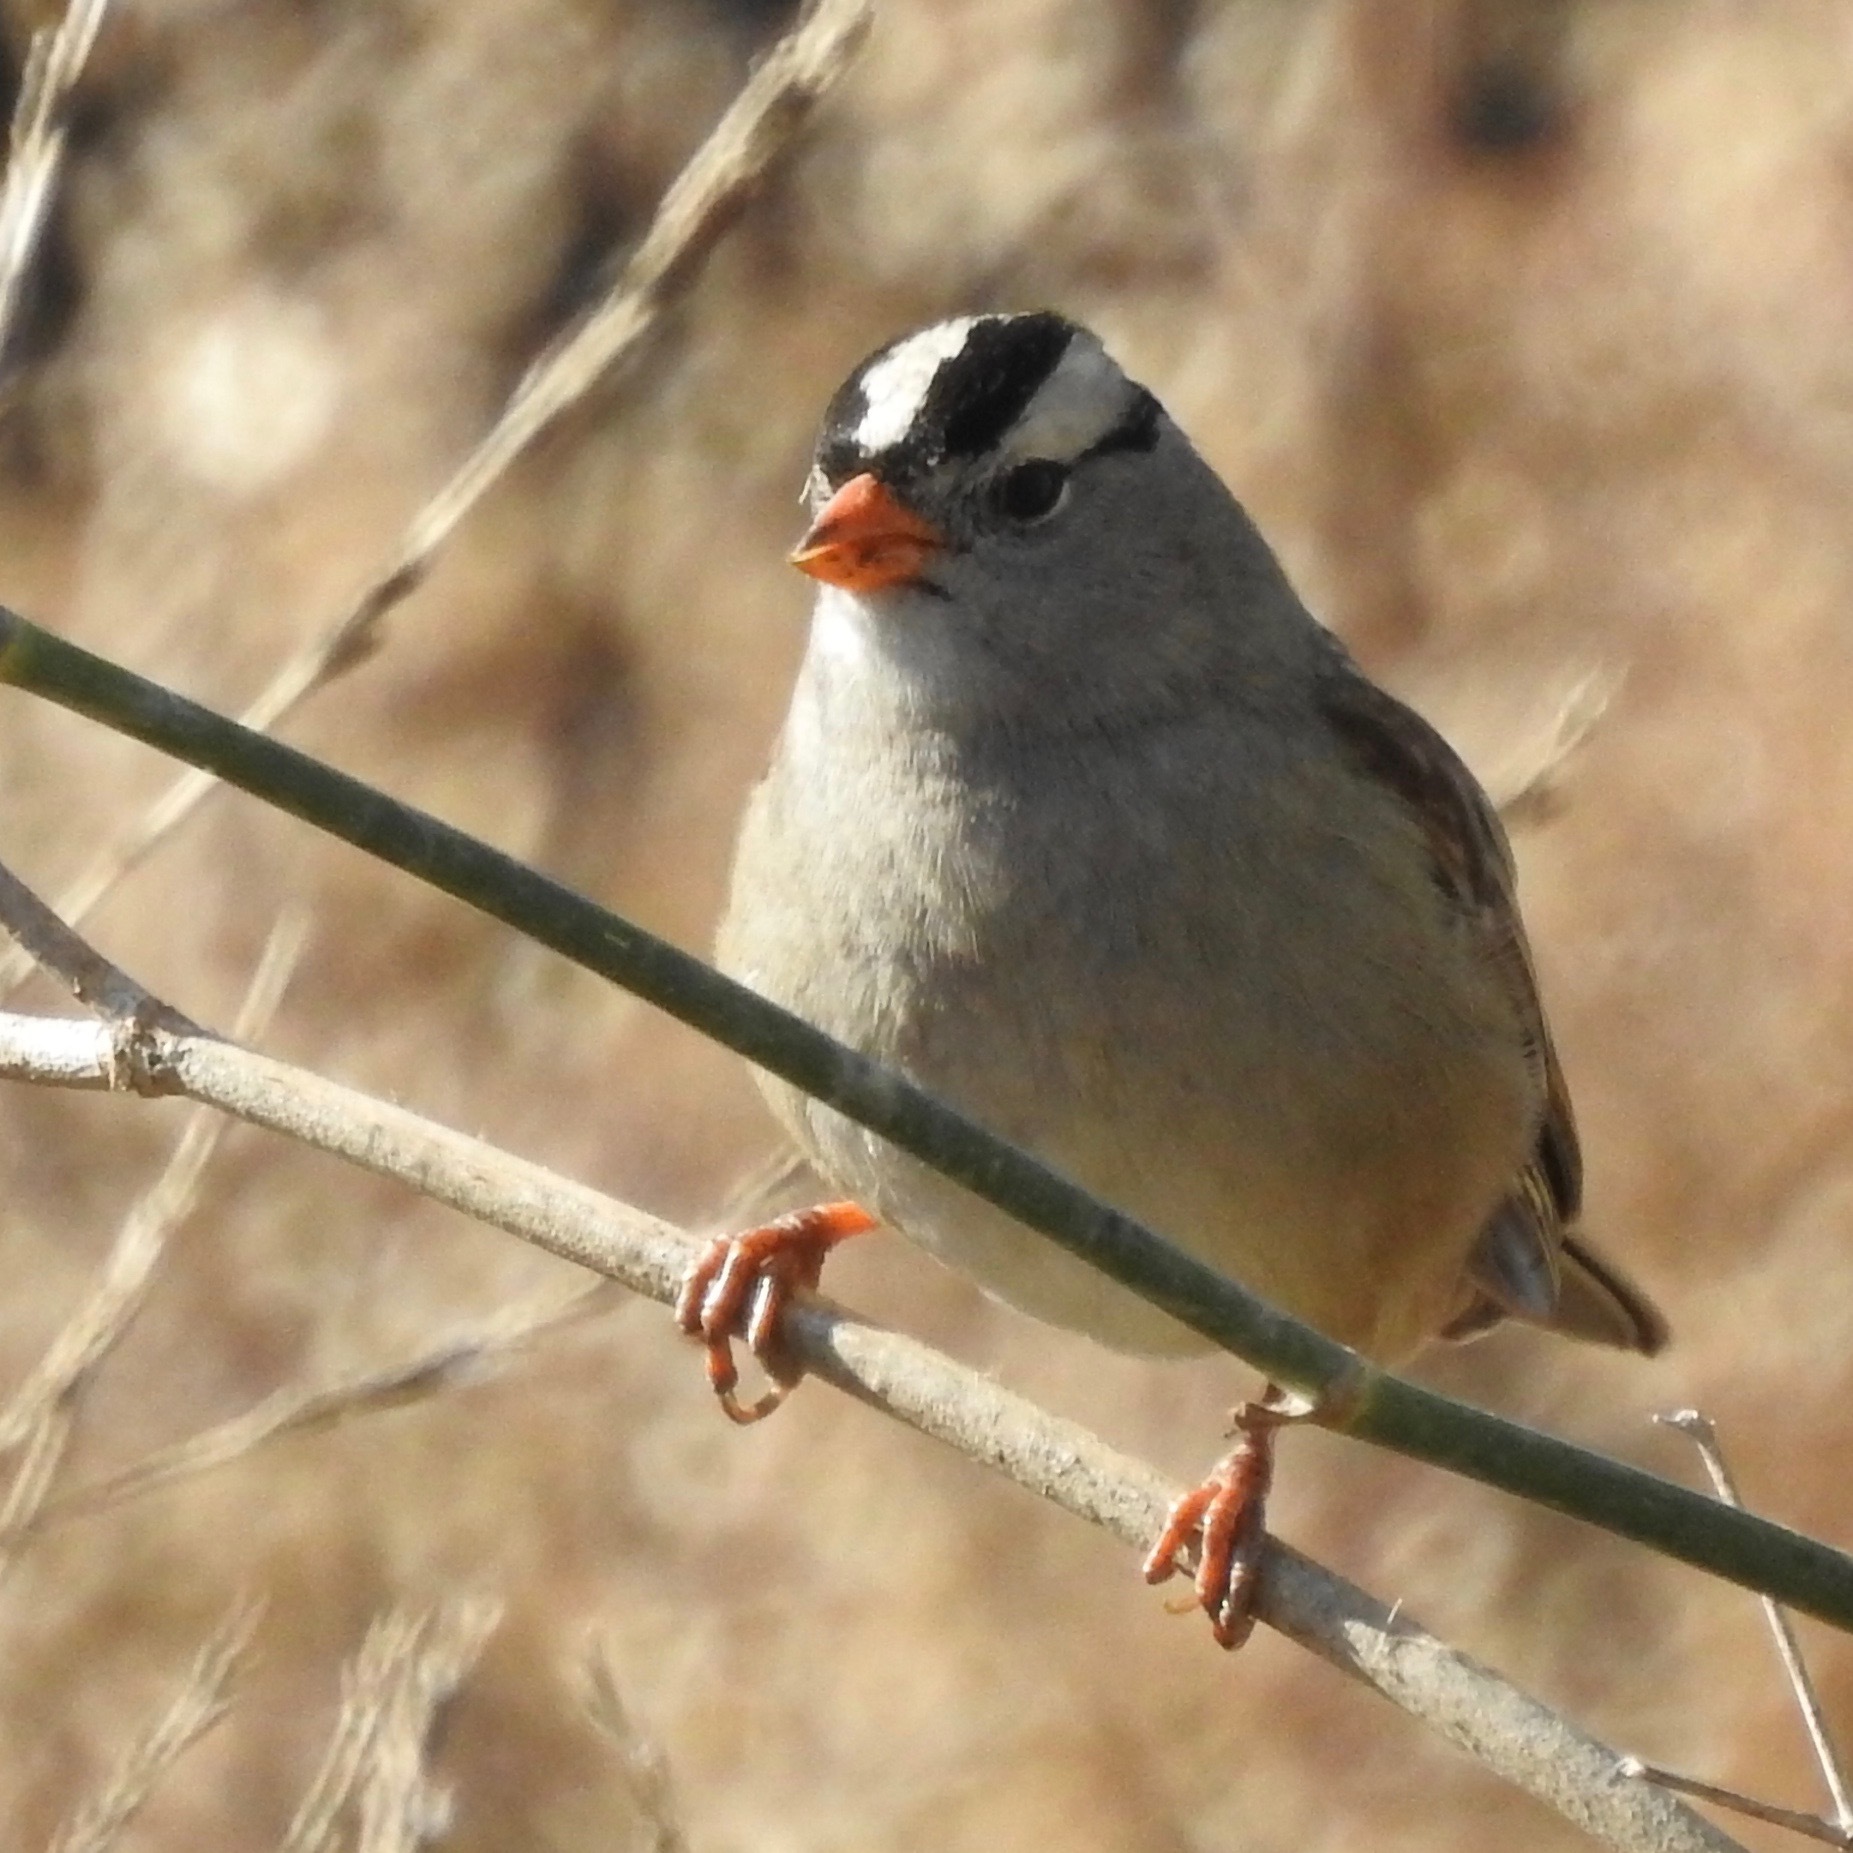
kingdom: Animalia
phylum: Chordata
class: Aves
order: Passeriformes
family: Passerellidae
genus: Zonotrichia
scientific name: Zonotrichia leucophrys
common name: White-crowned sparrow
